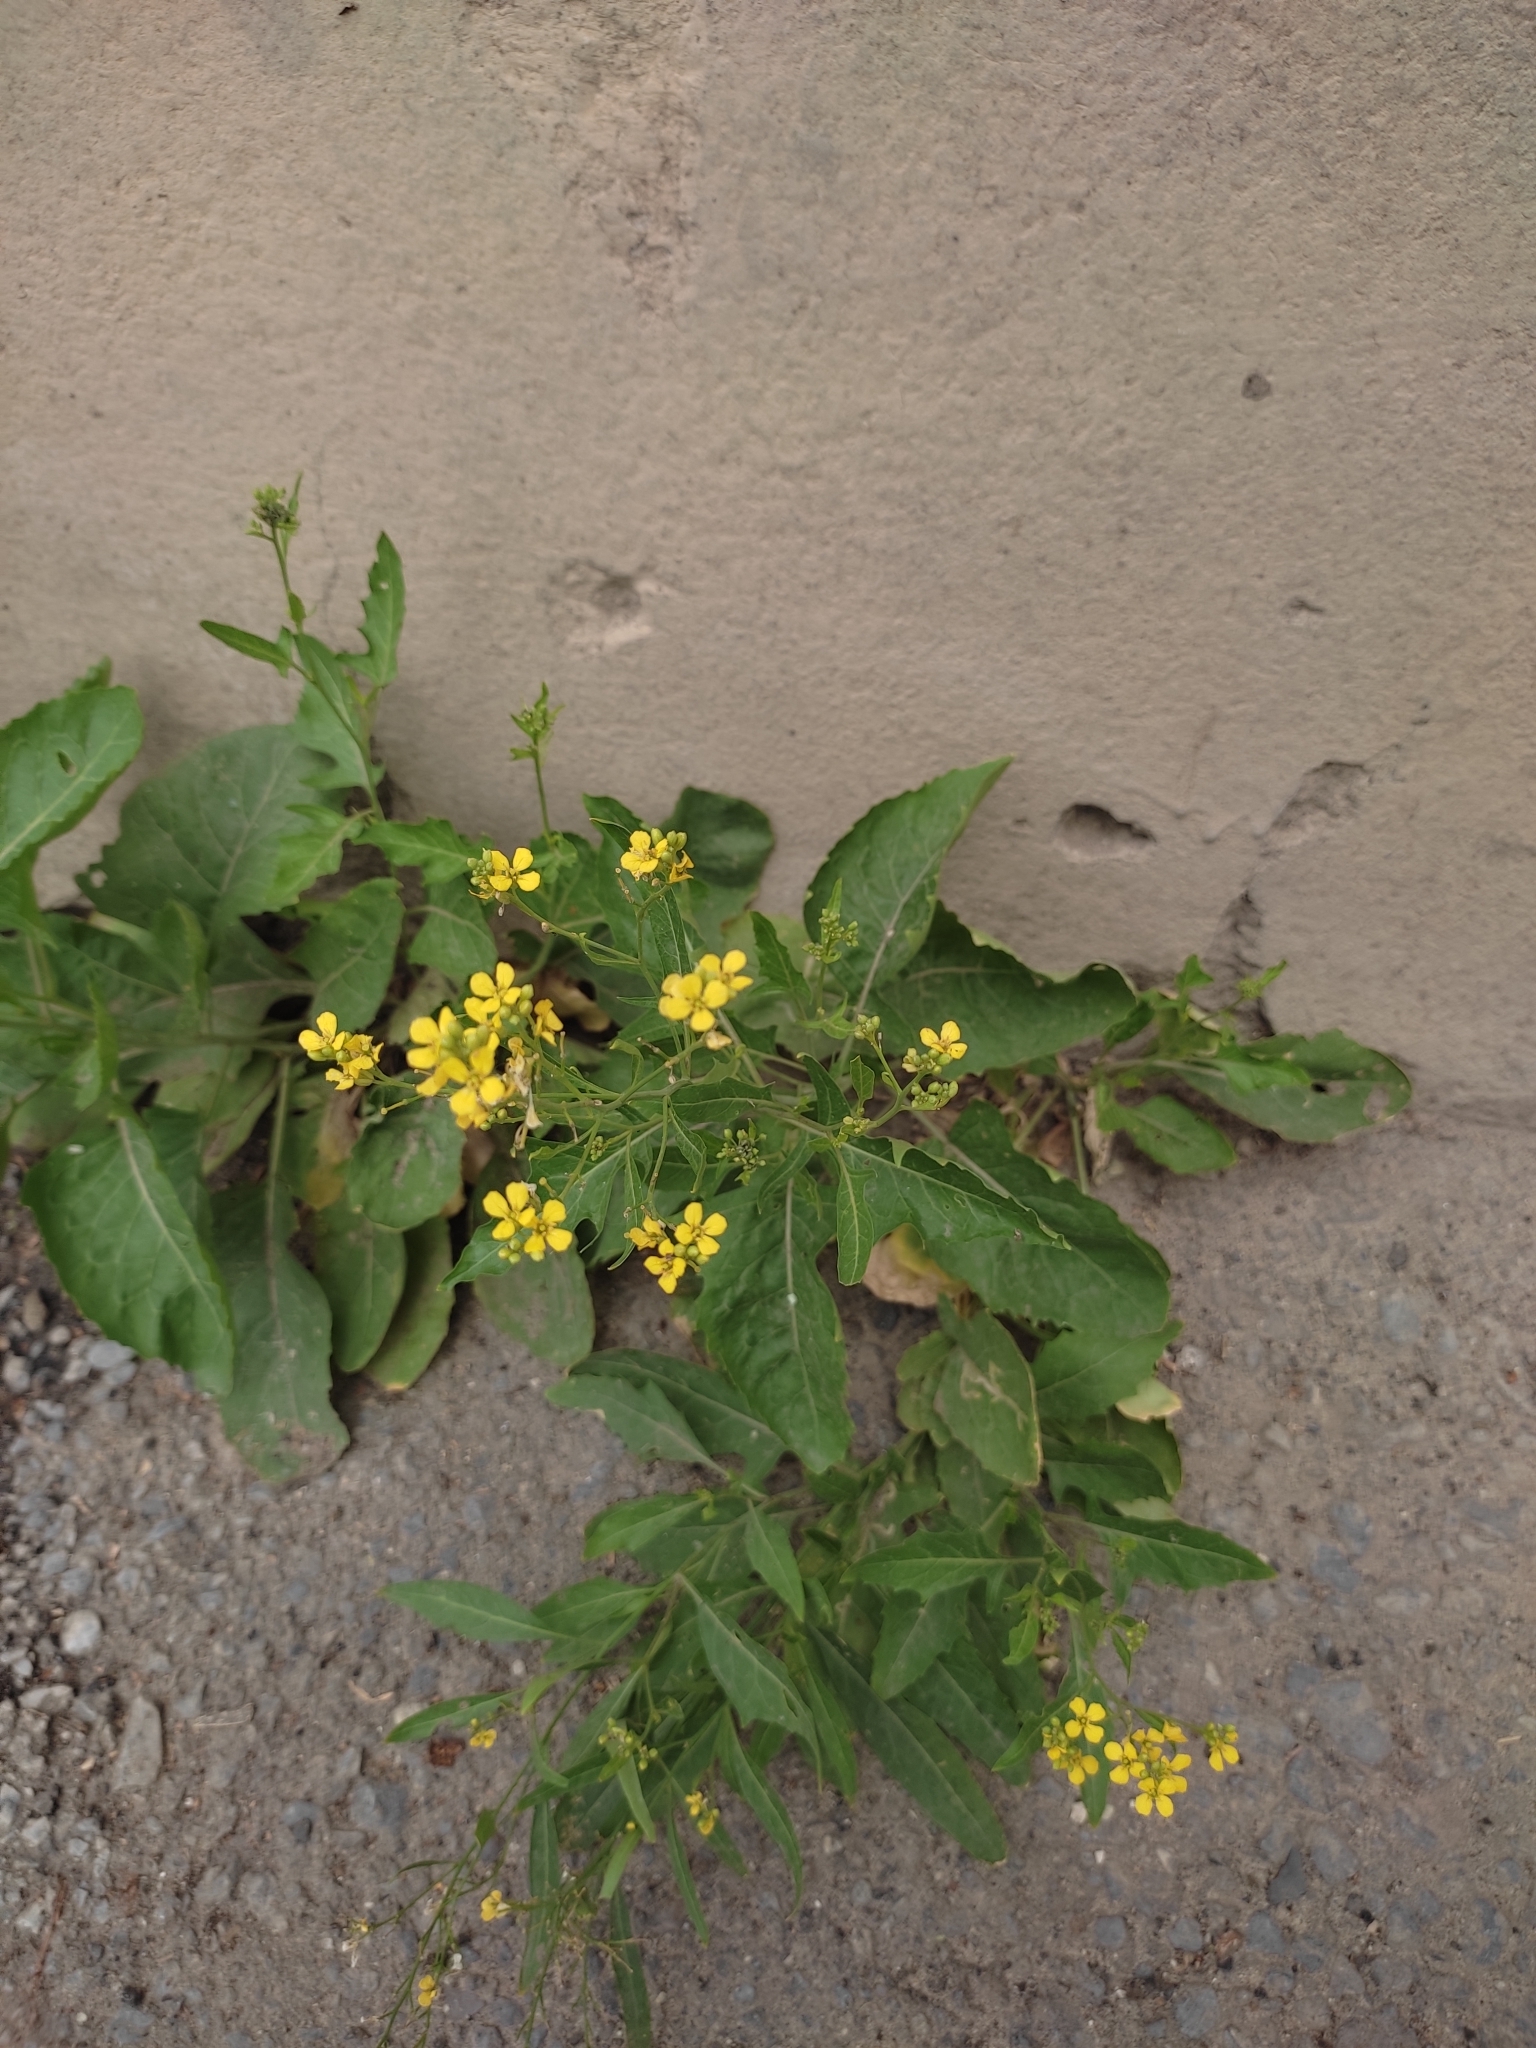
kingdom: Plantae
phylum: Tracheophyta
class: Magnoliopsida
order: Brassicales
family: Brassicaceae
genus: Sisymbrium
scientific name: Sisymbrium volgense
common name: Russian mustard
